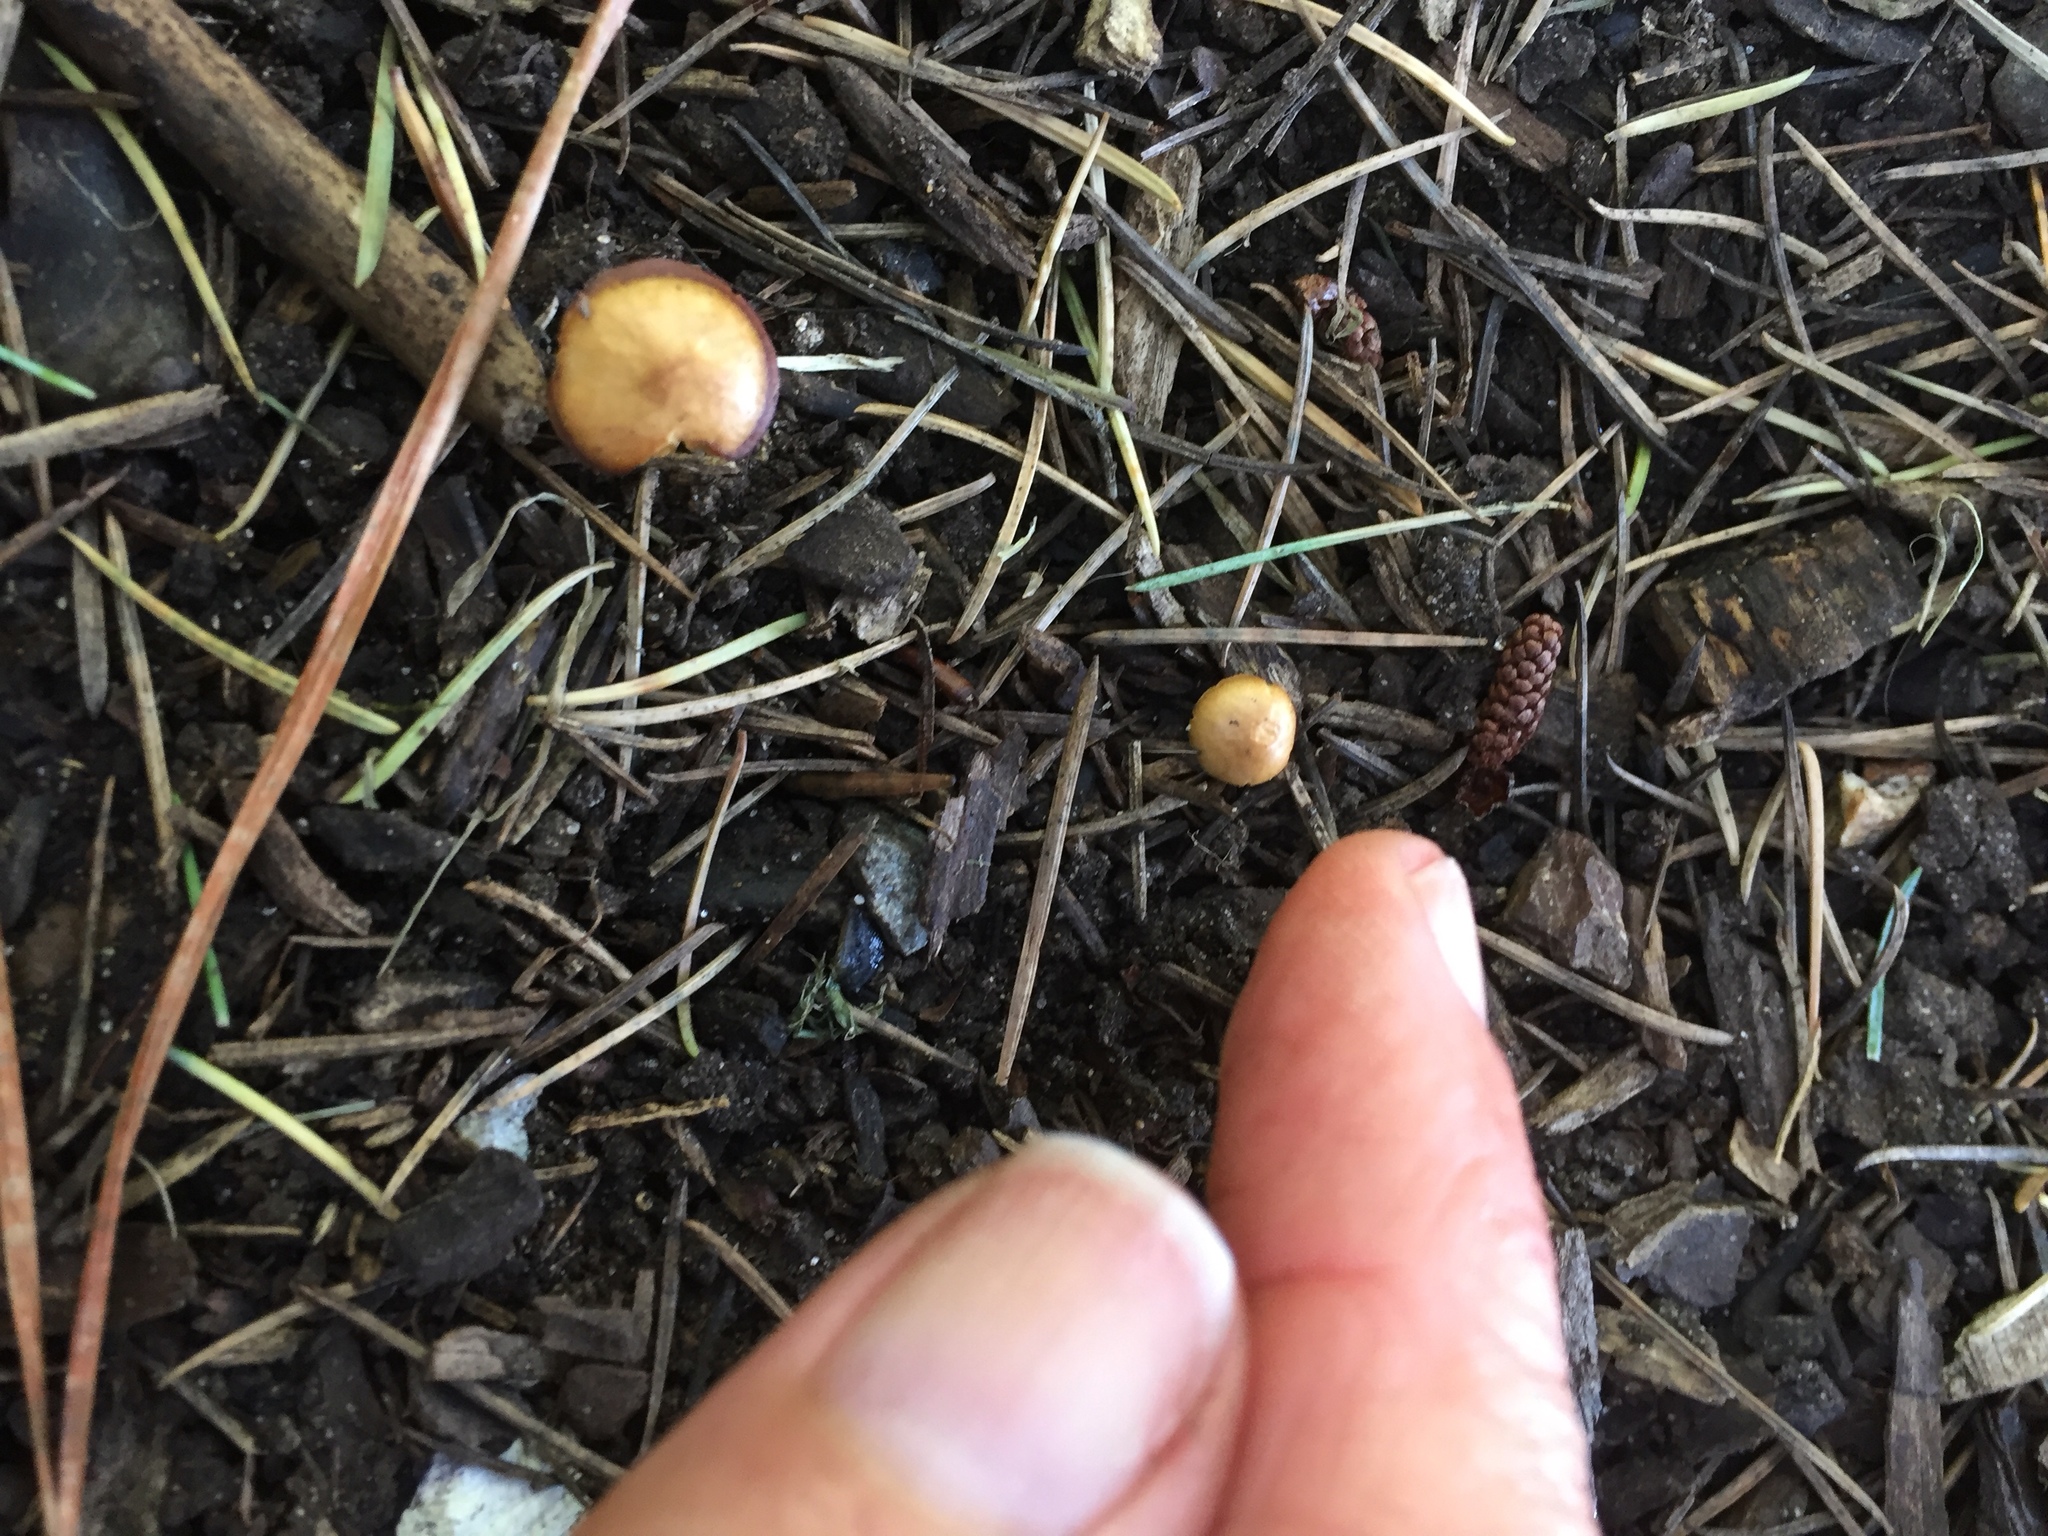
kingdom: Fungi
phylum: Basidiomycota
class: Agaricomycetes
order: Agaricales
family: Bolbitiaceae
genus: Conocybe
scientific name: Conocybe rugosa
